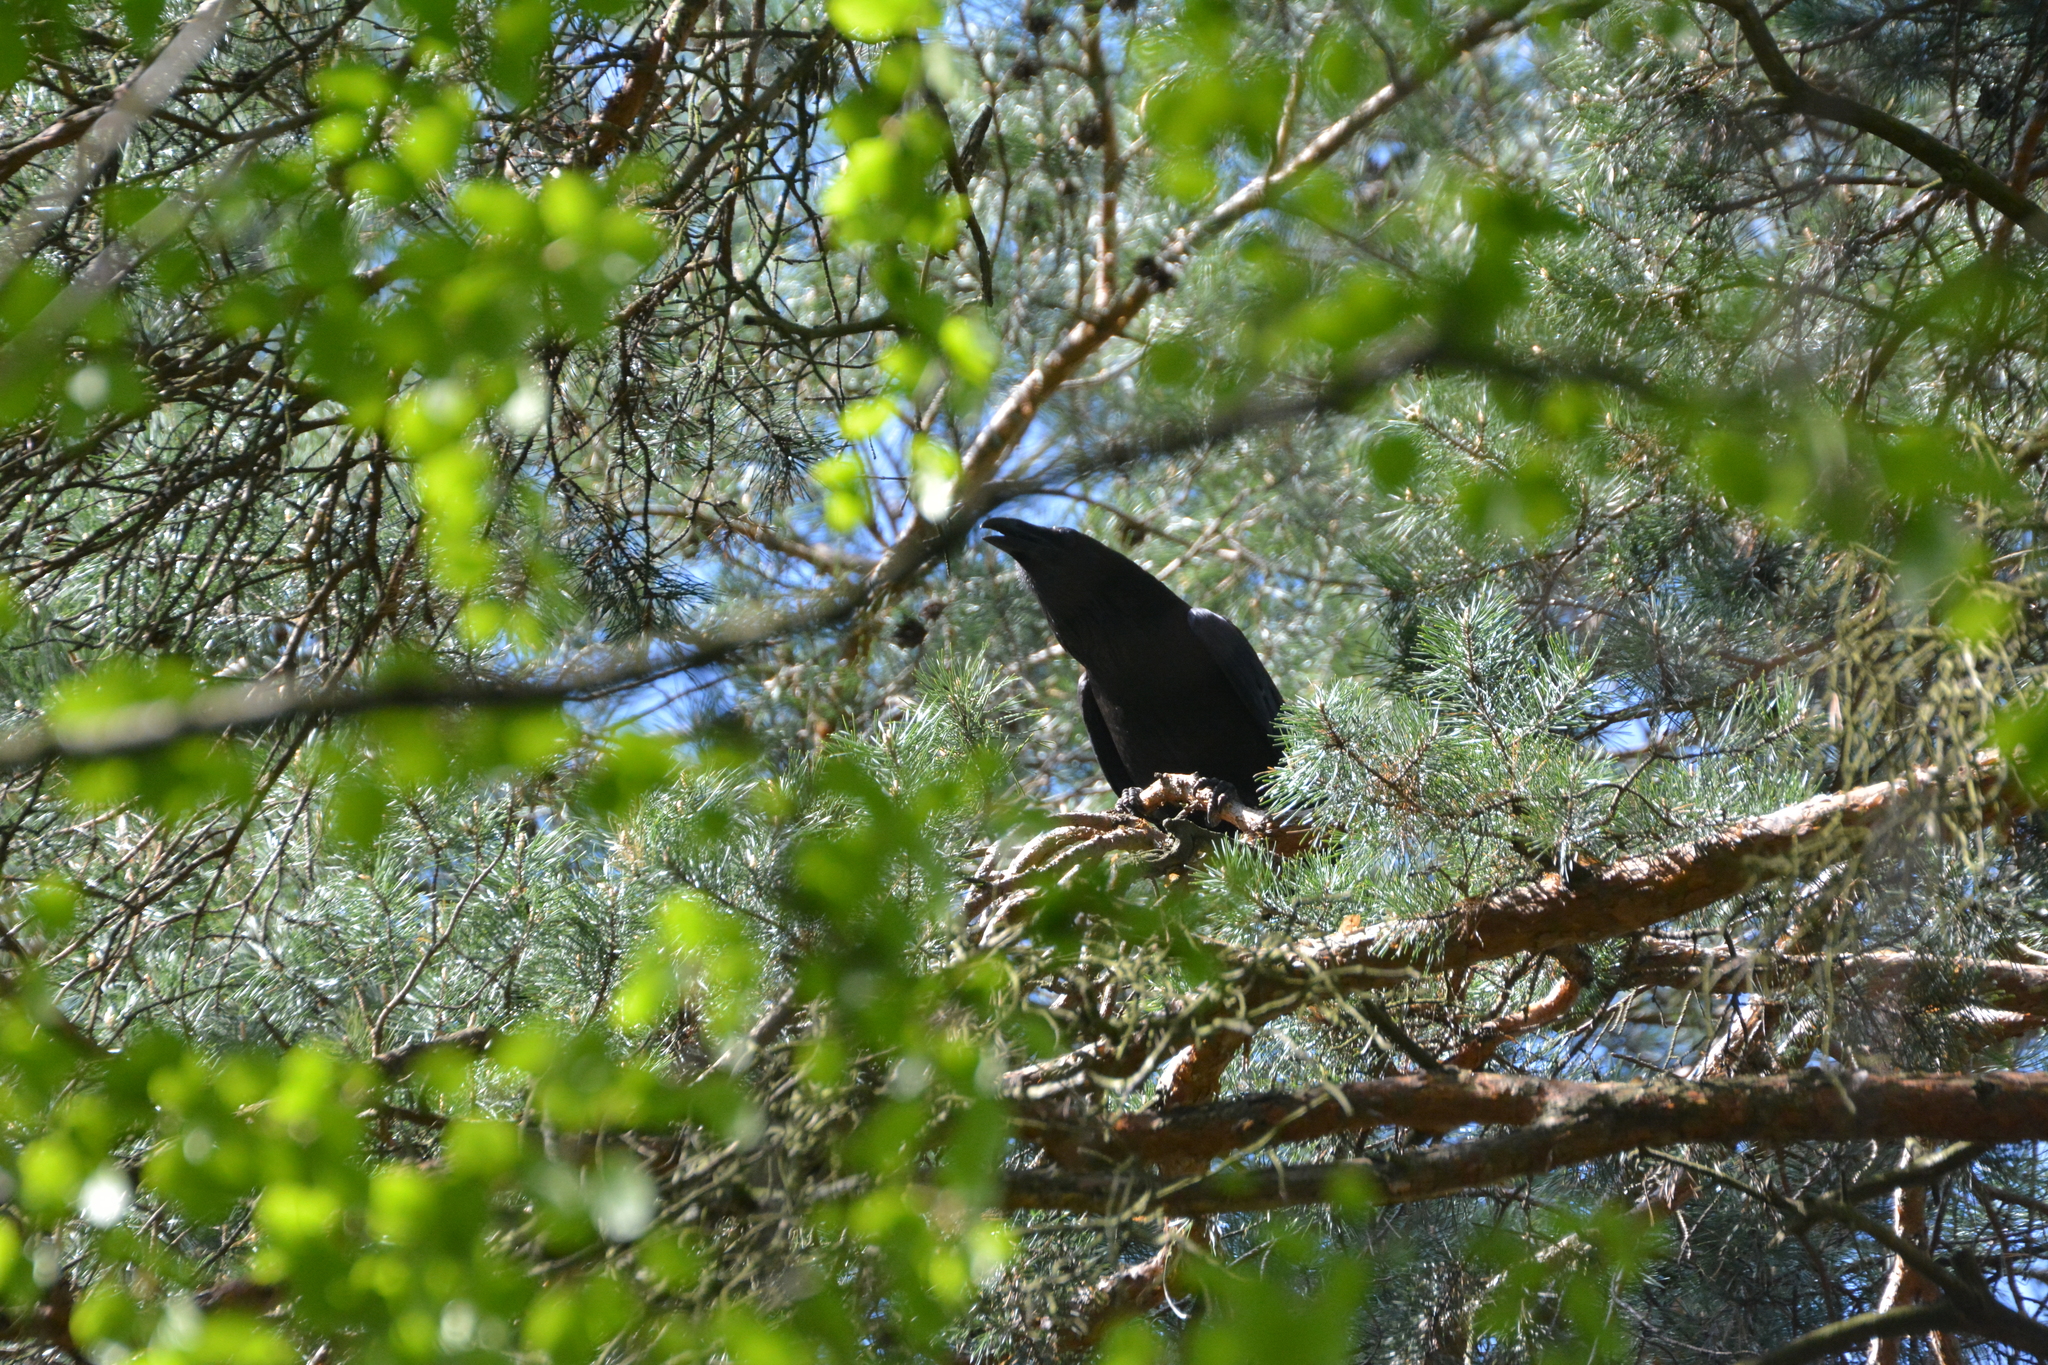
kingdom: Animalia
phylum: Chordata
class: Aves
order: Passeriformes
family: Corvidae
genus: Corvus
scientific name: Corvus corax
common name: Common raven
